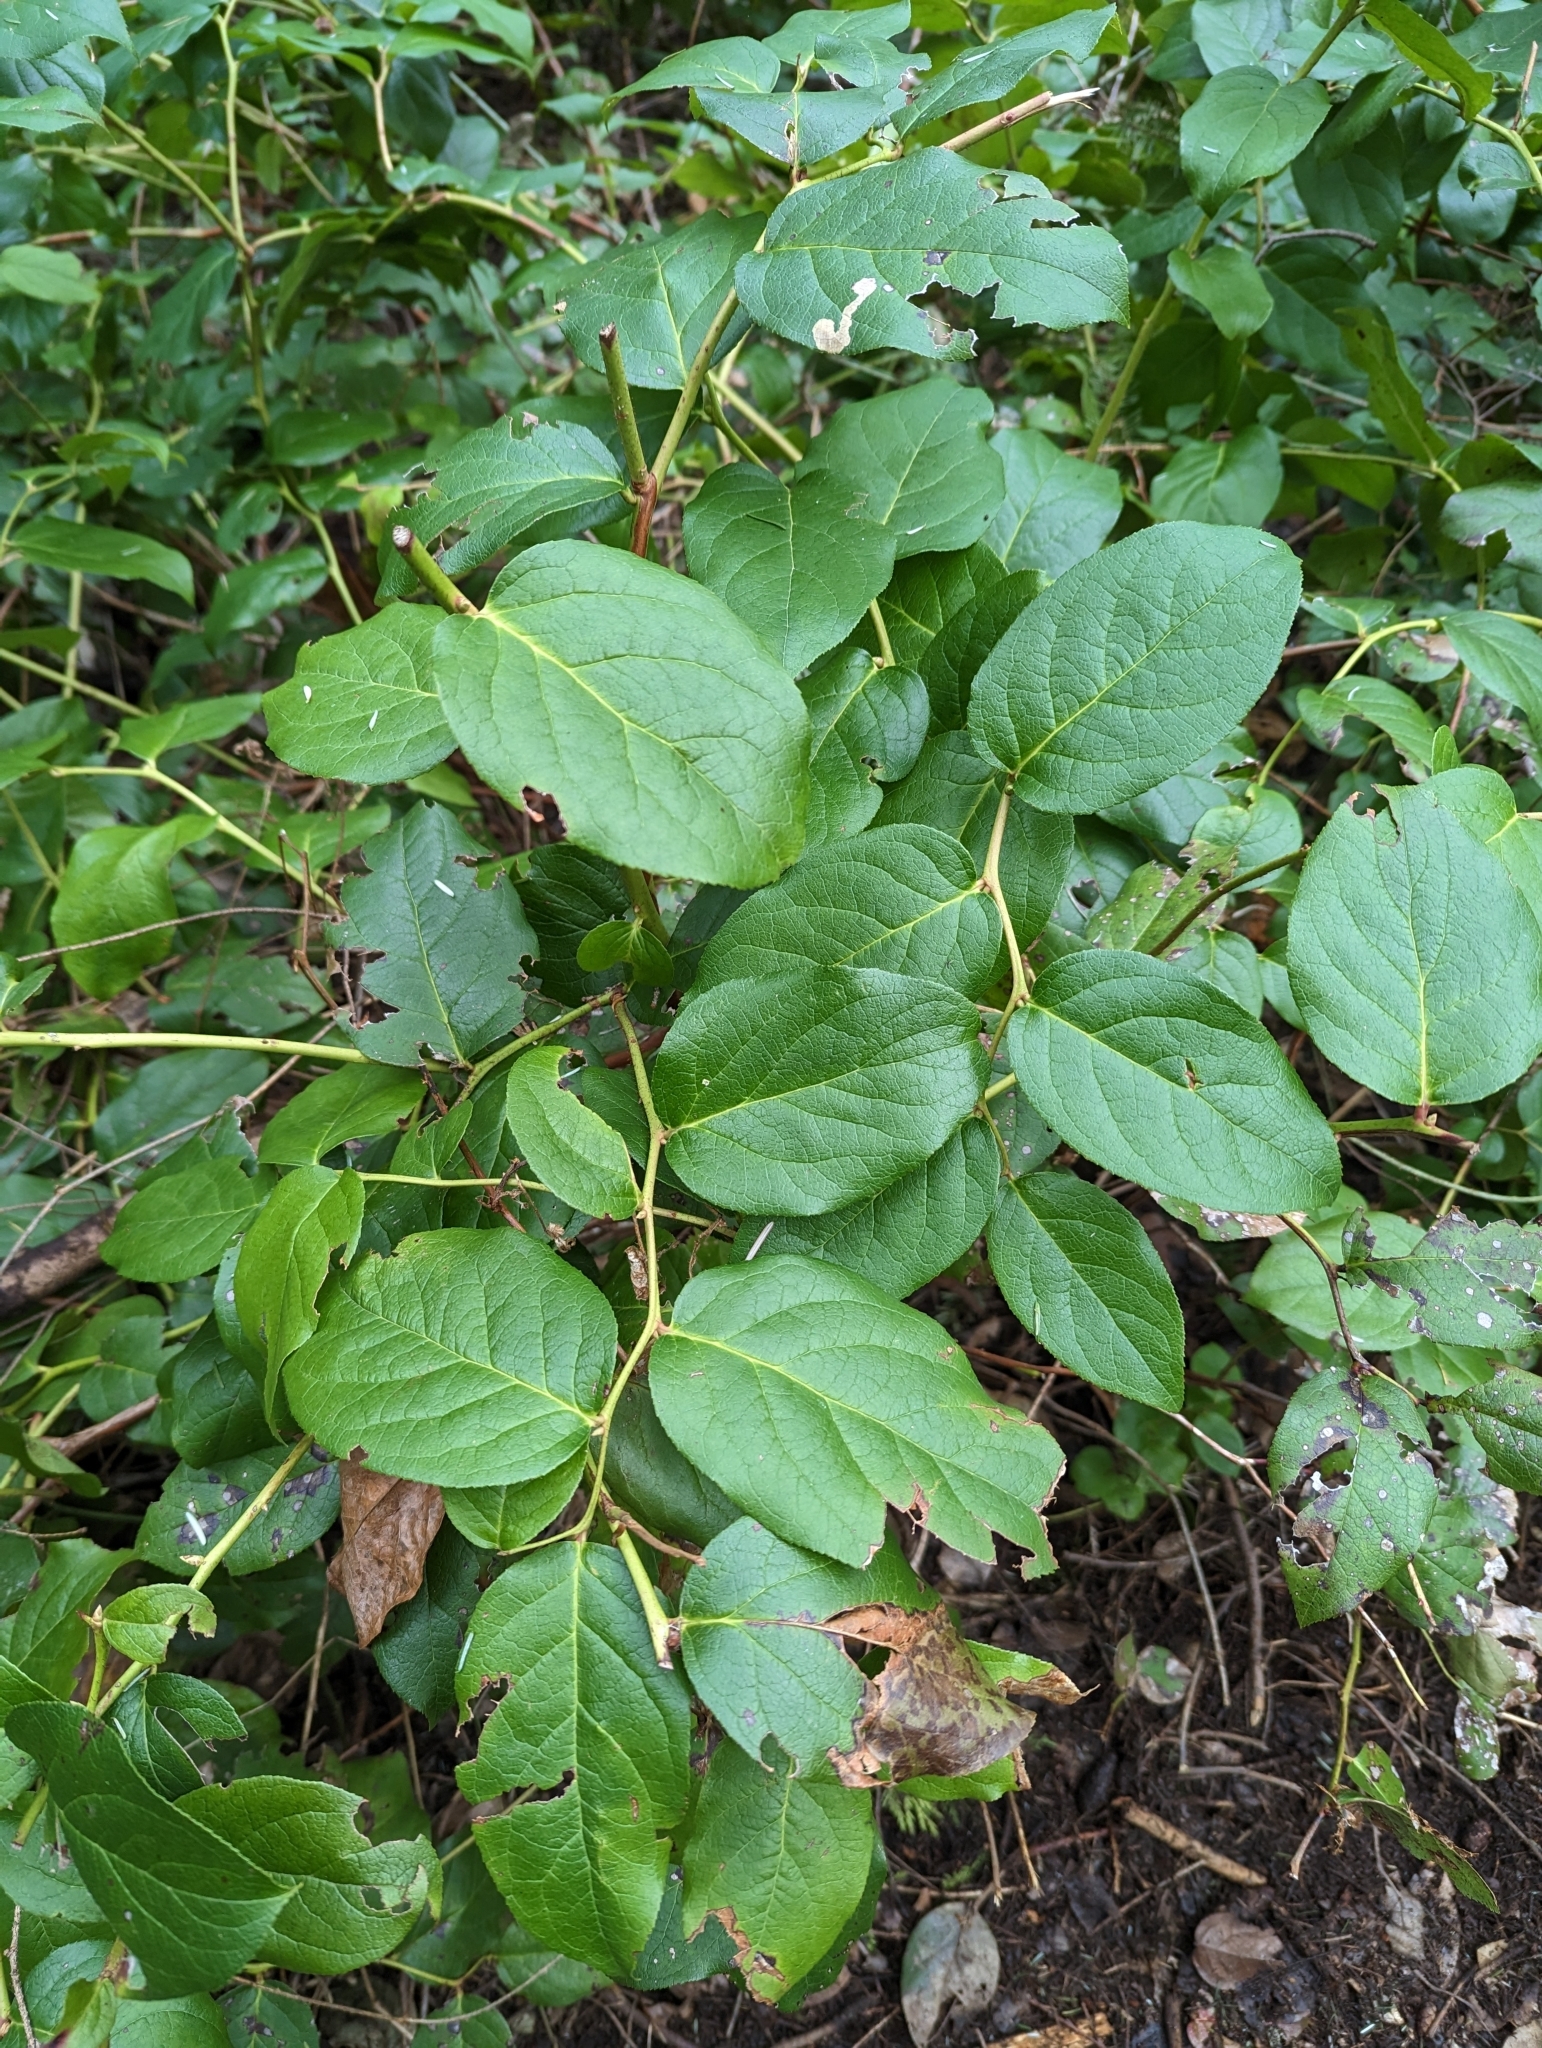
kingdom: Plantae
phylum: Tracheophyta
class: Magnoliopsida
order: Ericales
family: Ericaceae
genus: Gaultheria
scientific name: Gaultheria shallon
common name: Shallon
